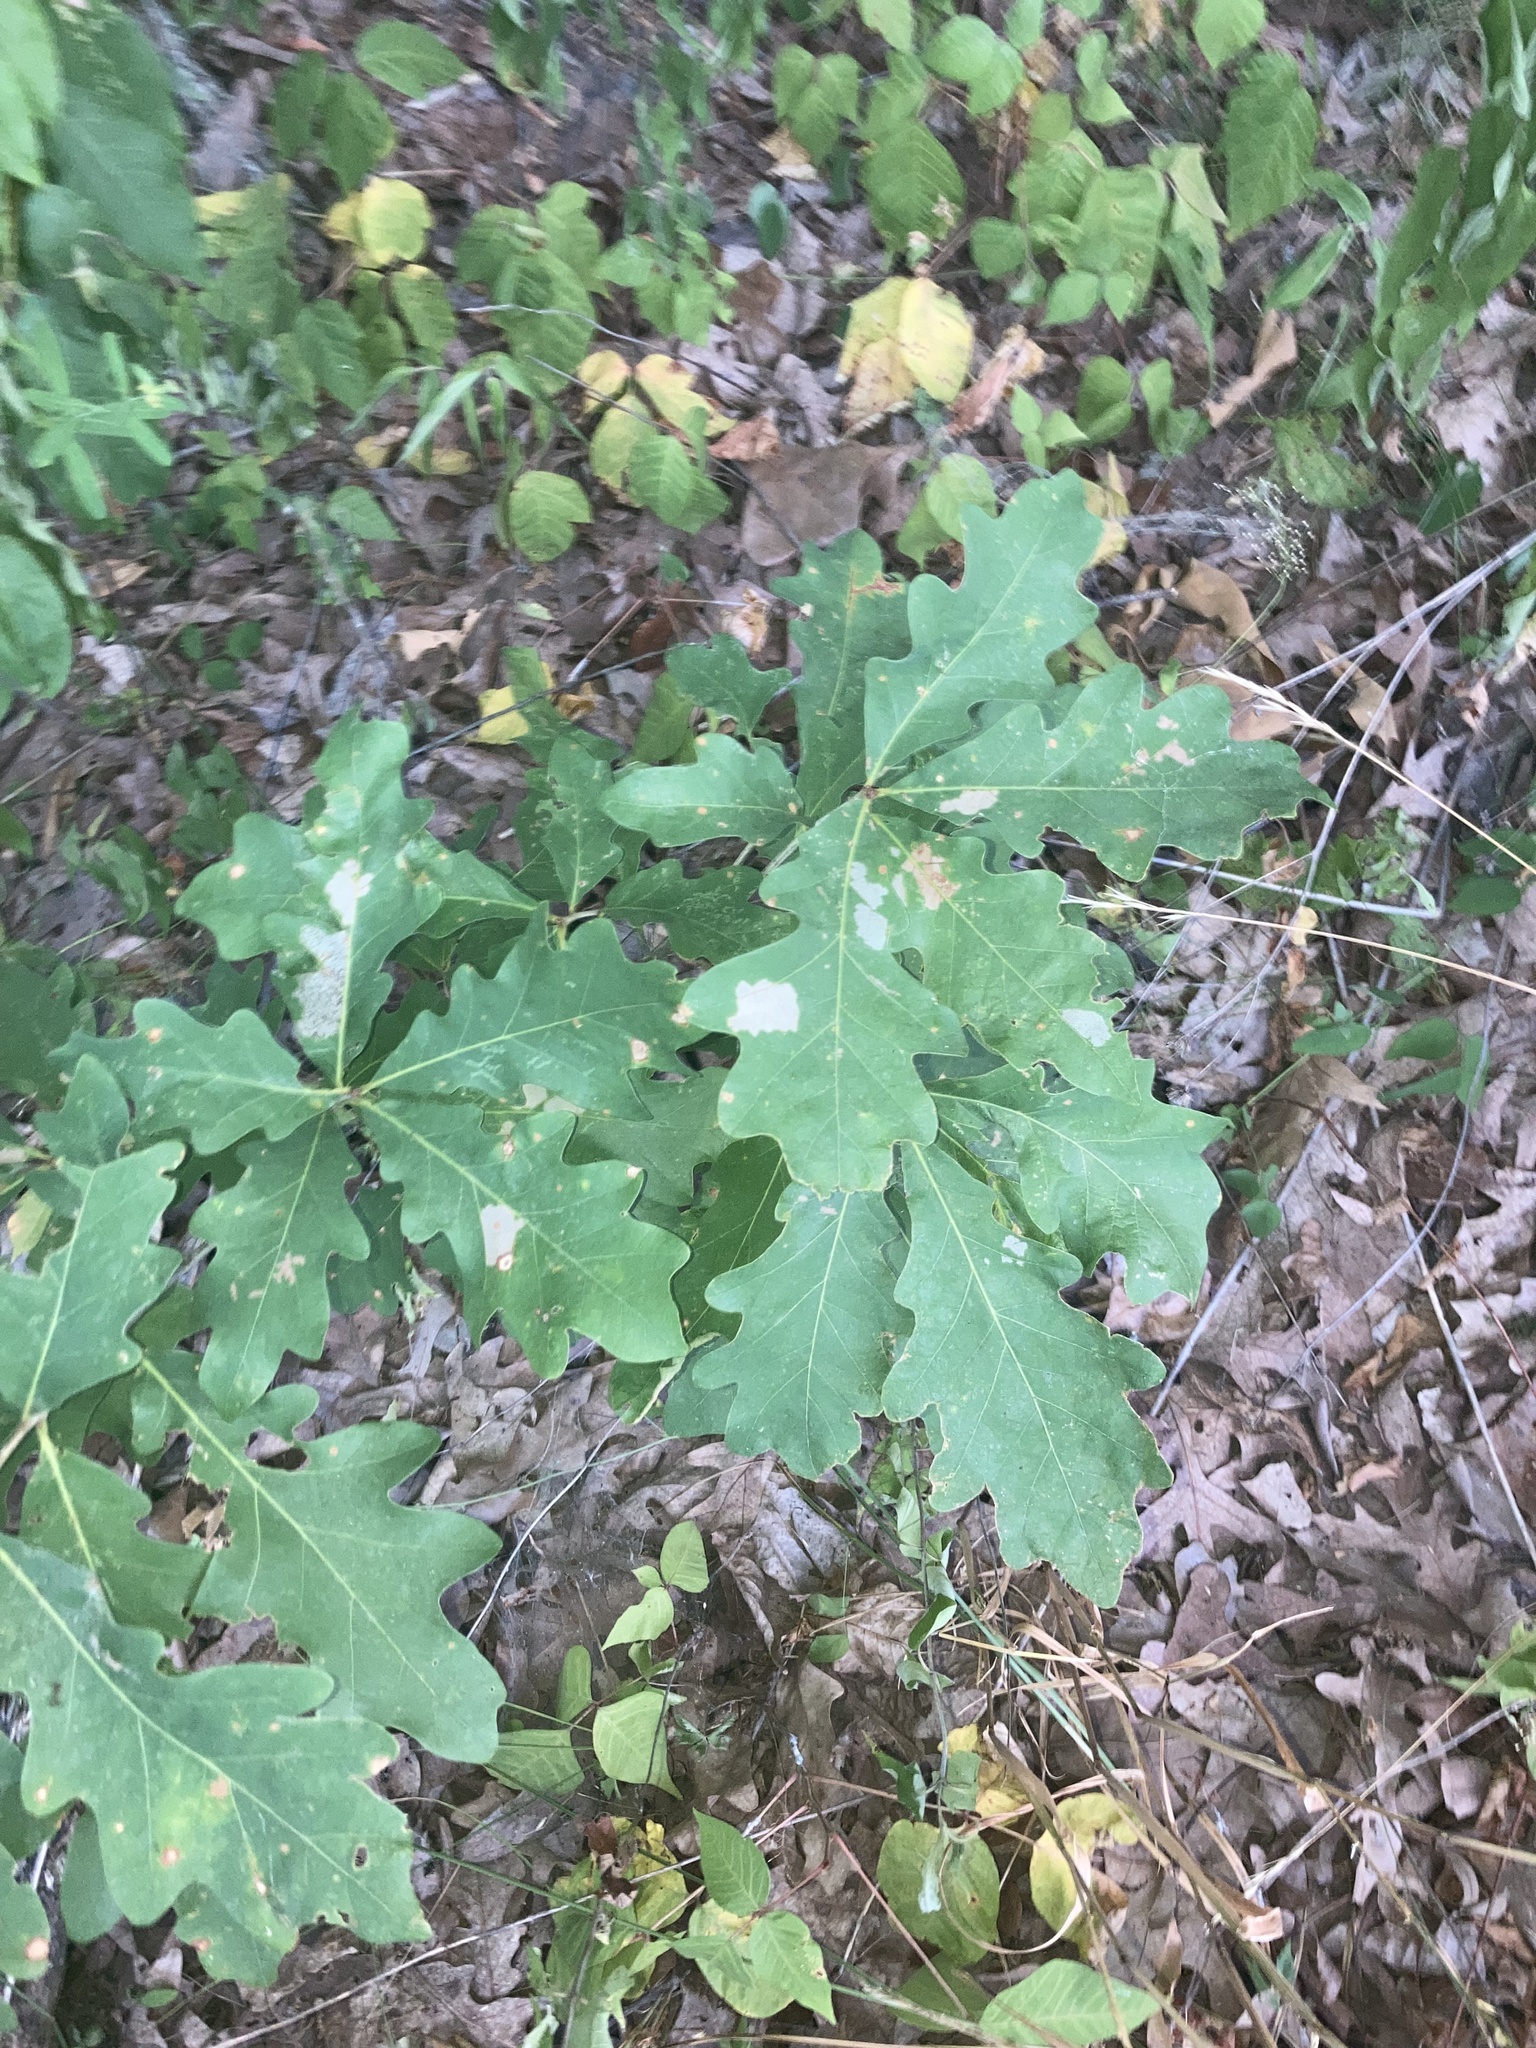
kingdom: Plantae
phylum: Tracheophyta
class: Magnoliopsida
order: Fagales
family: Fagaceae
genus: Quercus
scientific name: Quercus alba
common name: White oak
